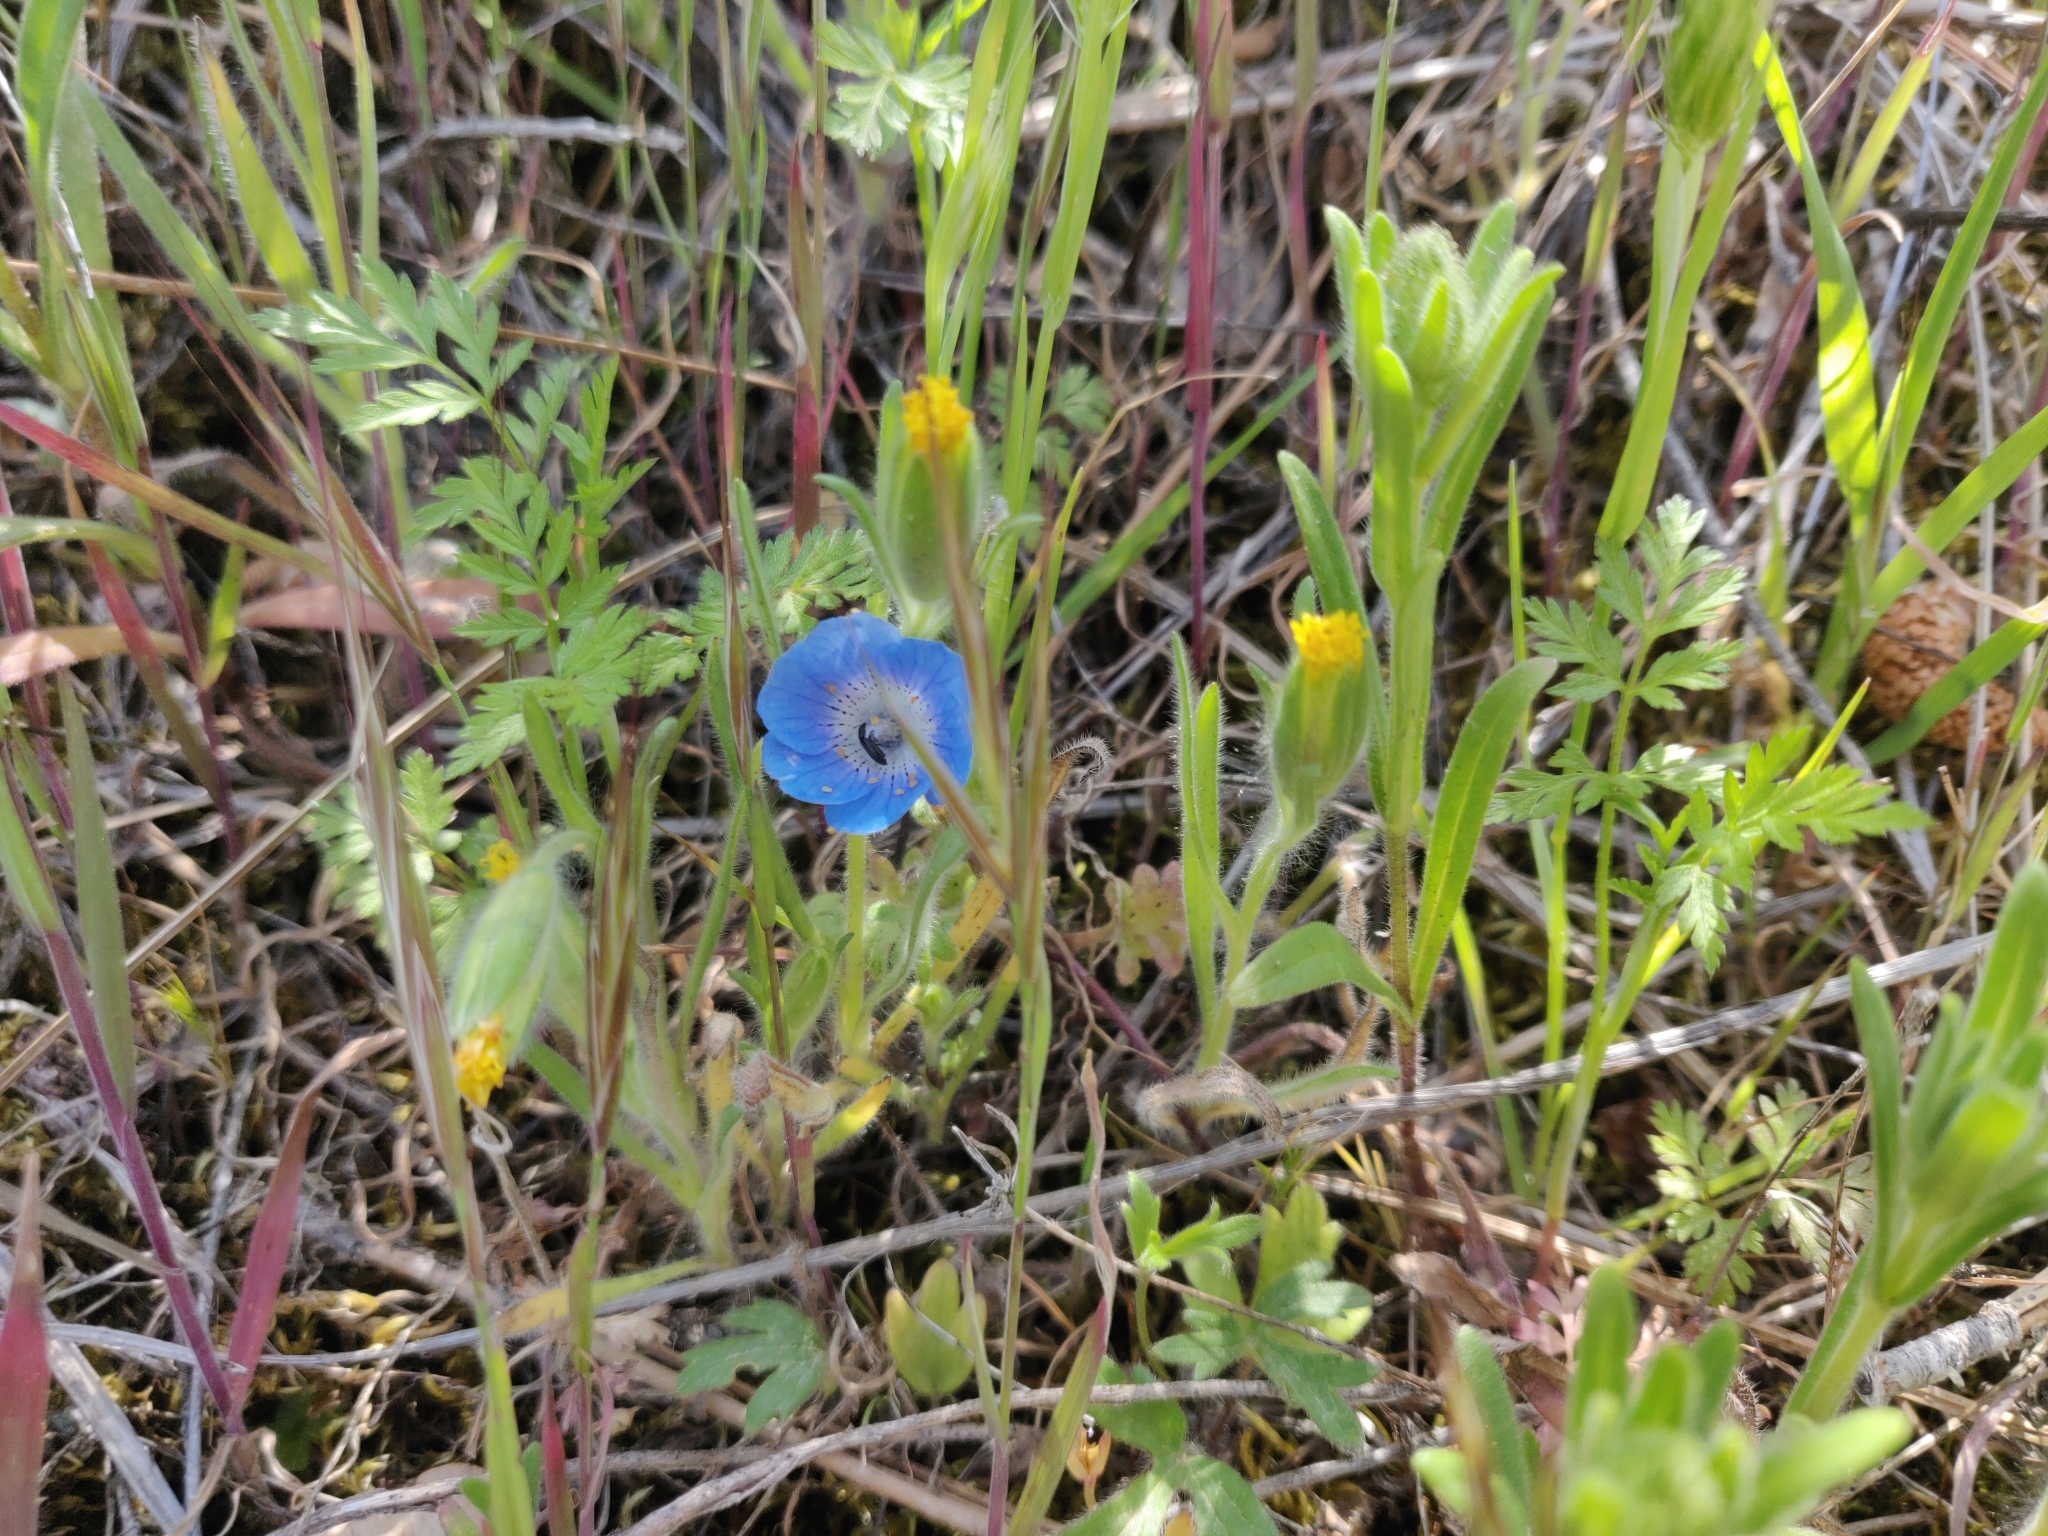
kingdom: Plantae
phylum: Tracheophyta
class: Magnoliopsida
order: Boraginales
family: Hydrophyllaceae
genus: Nemophila
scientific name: Nemophila menziesii
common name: Baby's-blue-eyes
